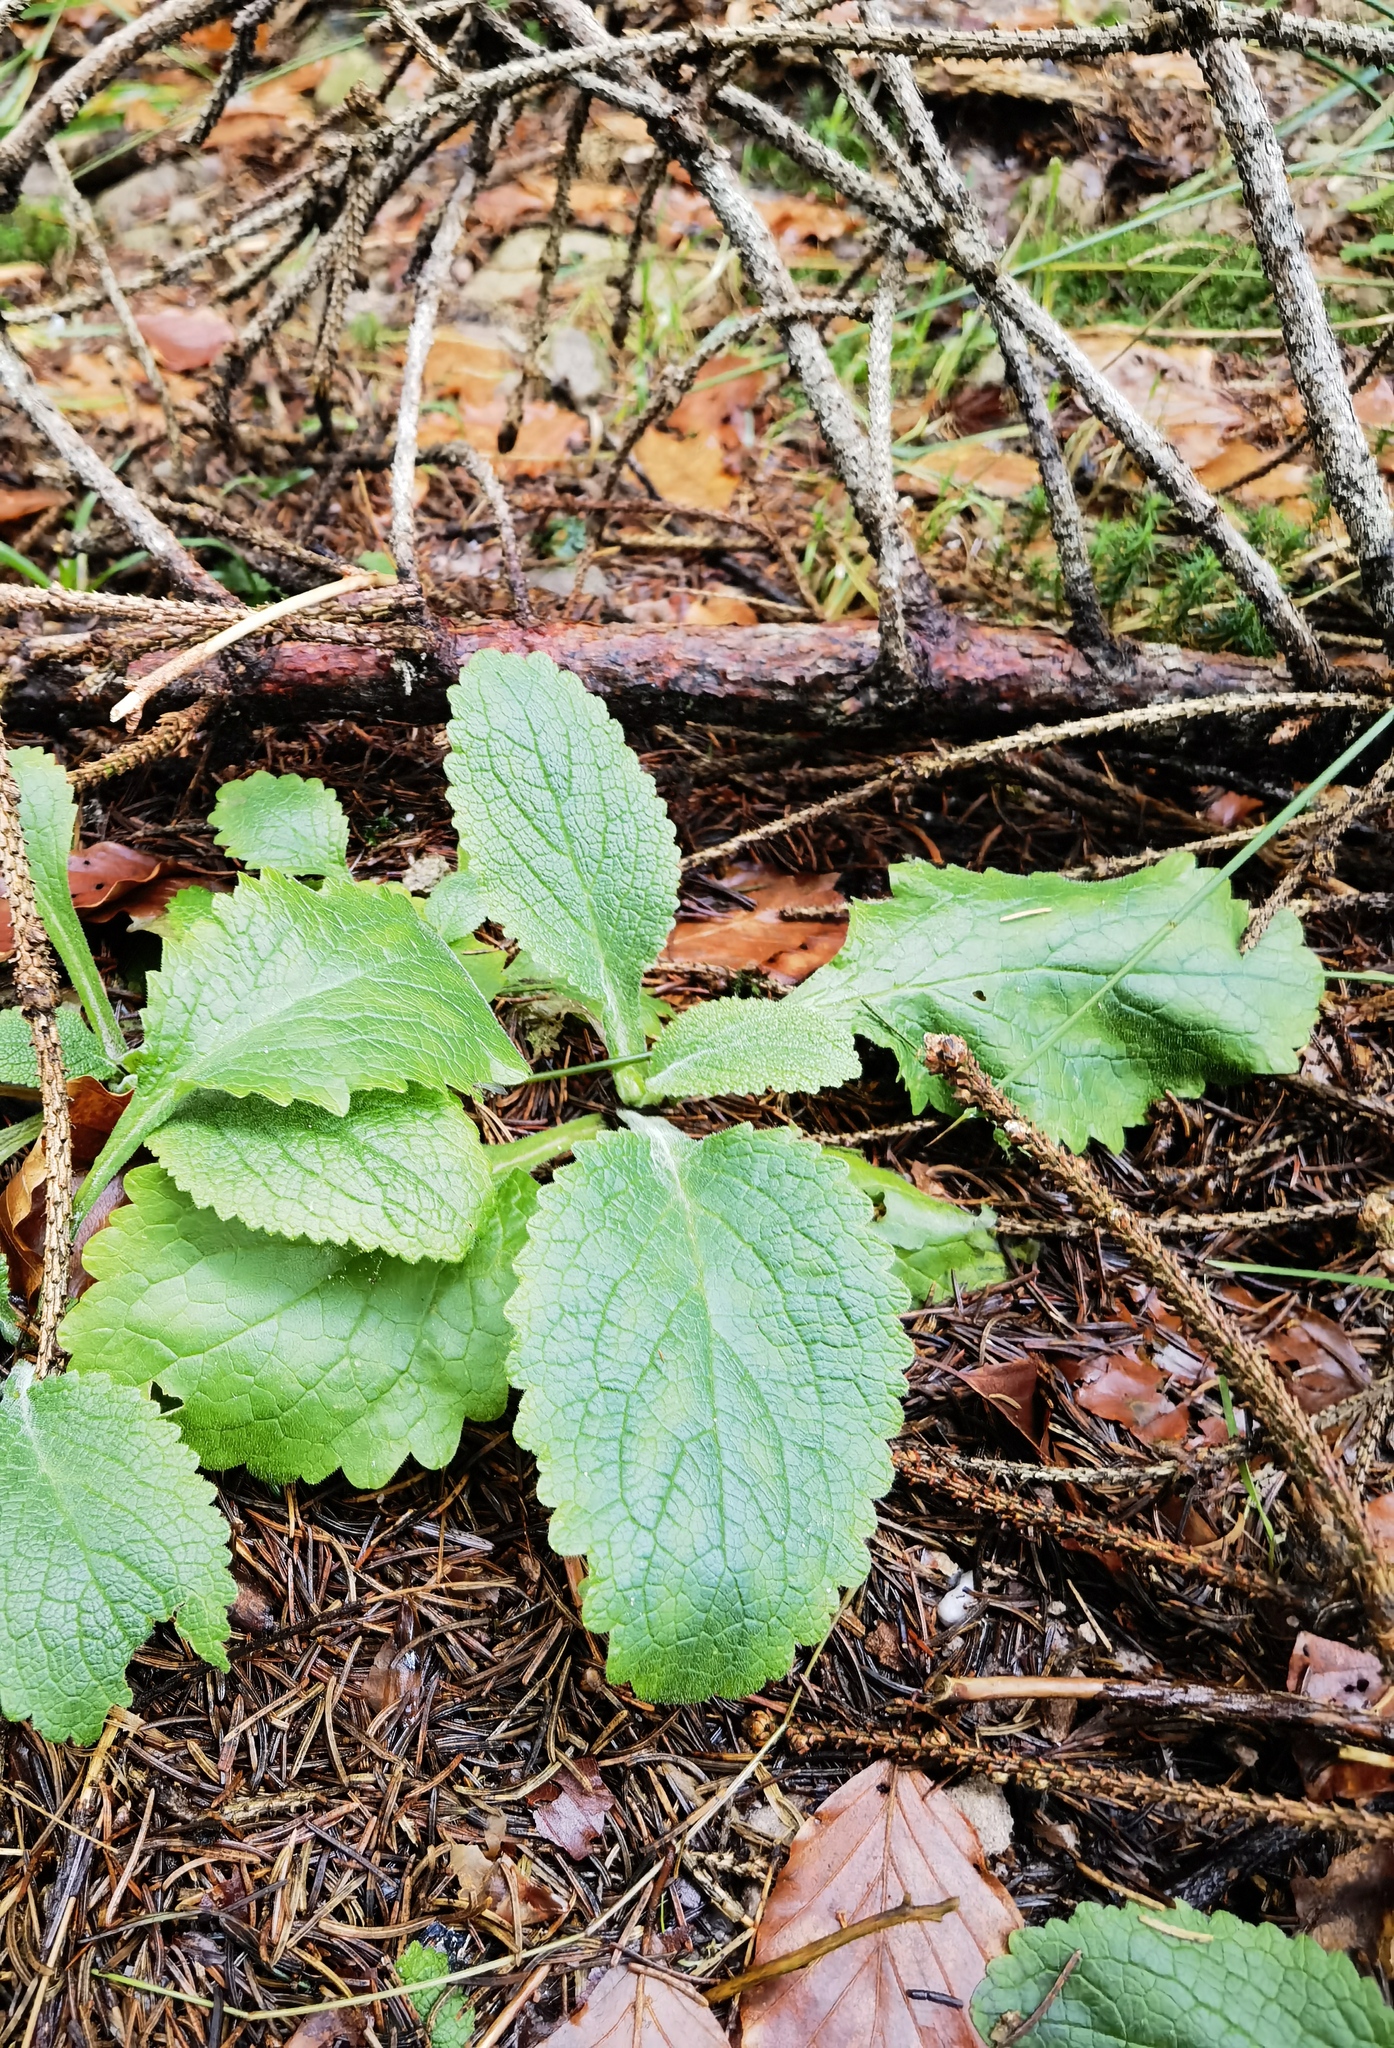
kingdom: Plantae
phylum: Tracheophyta
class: Magnoliopsida
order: Lamiales
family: Plantaginaceae
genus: Digitalis
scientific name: Digitalis purpurea
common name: Foxglove
